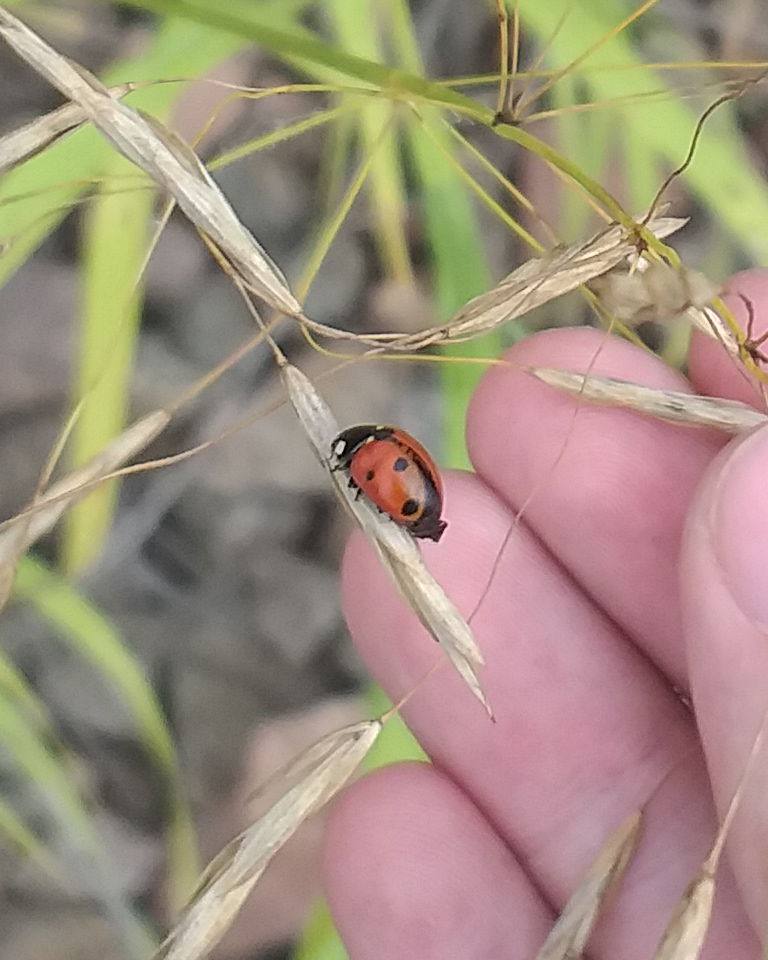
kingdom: Animalia
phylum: Arthropoda
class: Insecta
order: Coleoptera
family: Coccinellidae
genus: Coccinella
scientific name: Coccinella septempunctata
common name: Sevenspotted lady beetle
